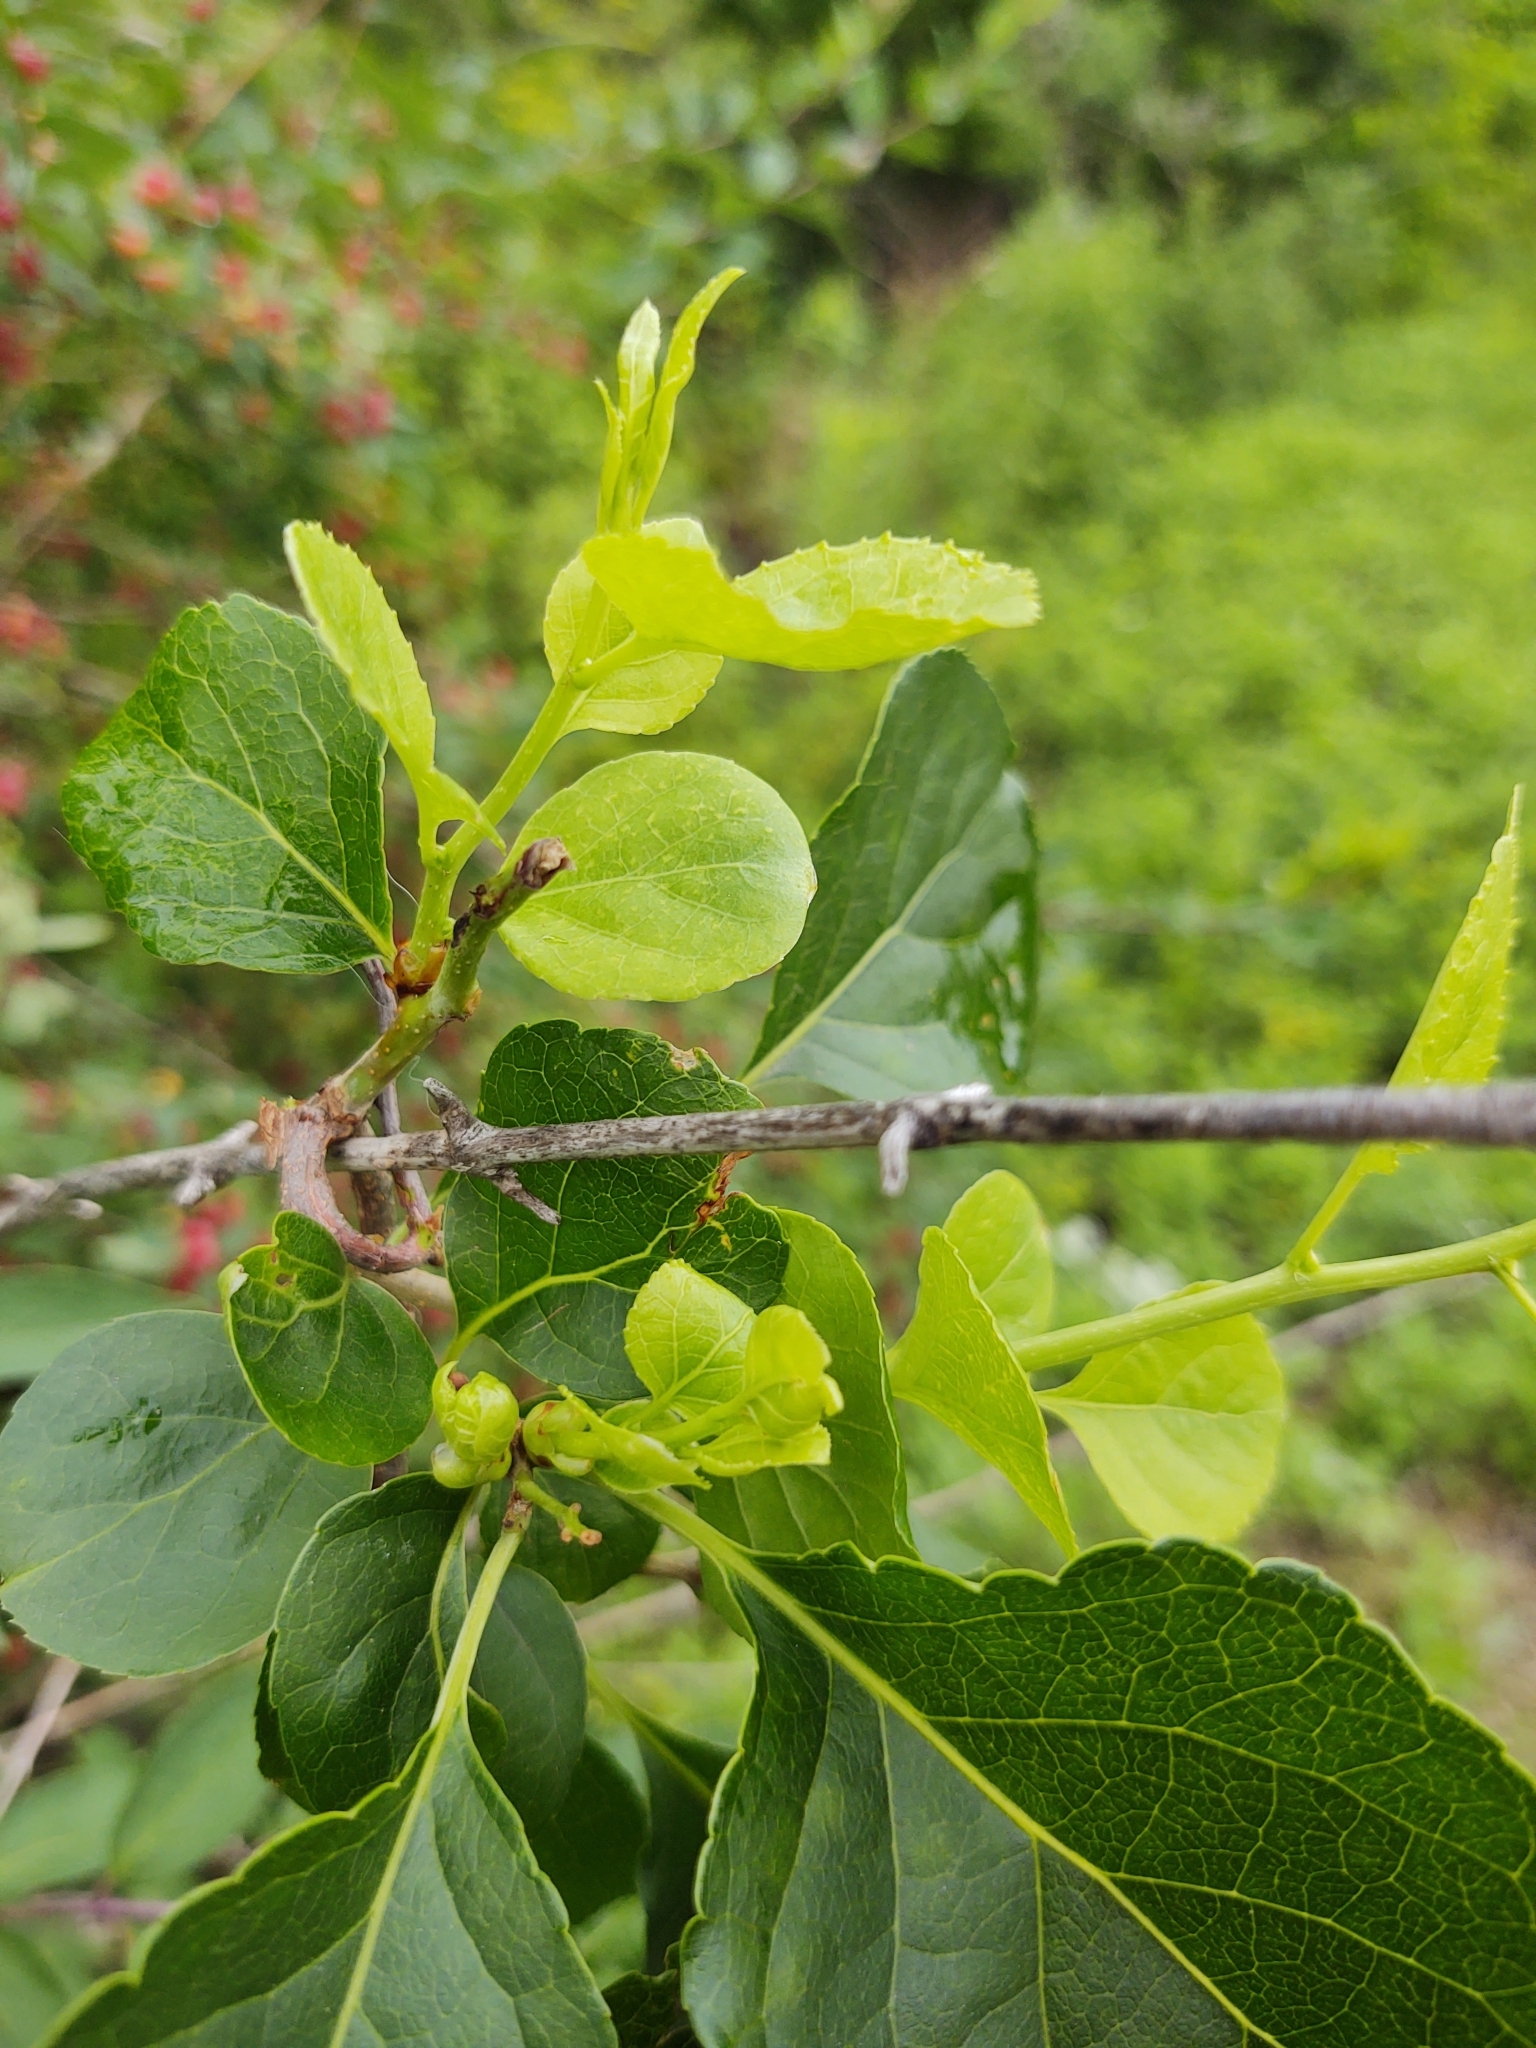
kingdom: Plantae
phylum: Tracheophyta
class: Magnoliopsida
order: Celastrales
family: Celastraceae
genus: Celastrus
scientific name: Celastrus orbiculatus
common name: Oriental bittersweet
